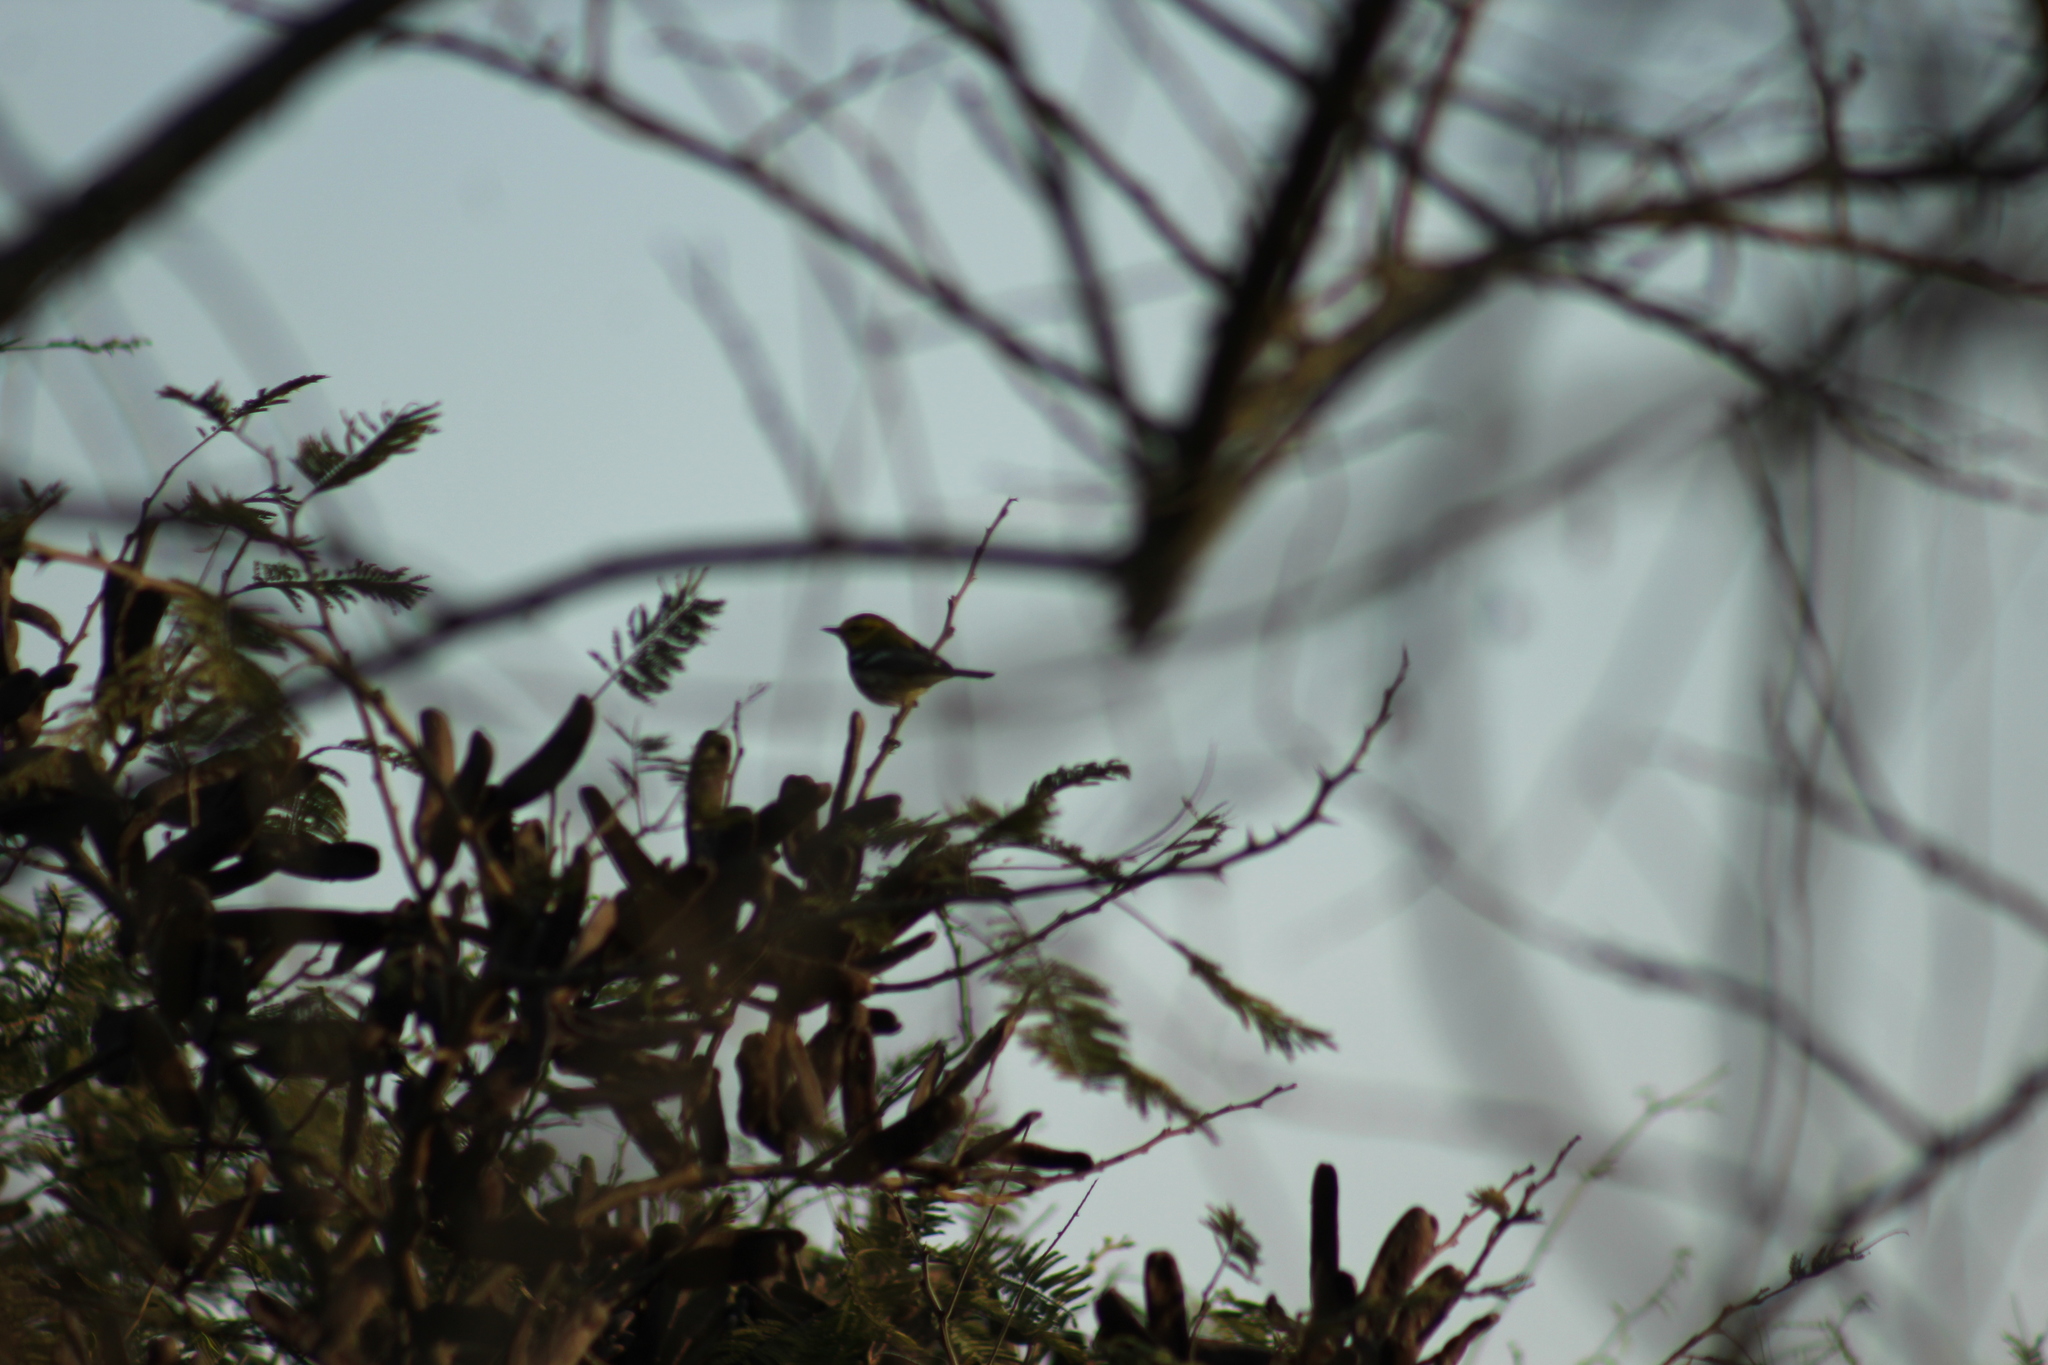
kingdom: Animalia
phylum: Chordata
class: Aves
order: Passeriformes
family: Parulidae
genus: Setophaga
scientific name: Setophaga virens
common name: Black-throated green warbler
